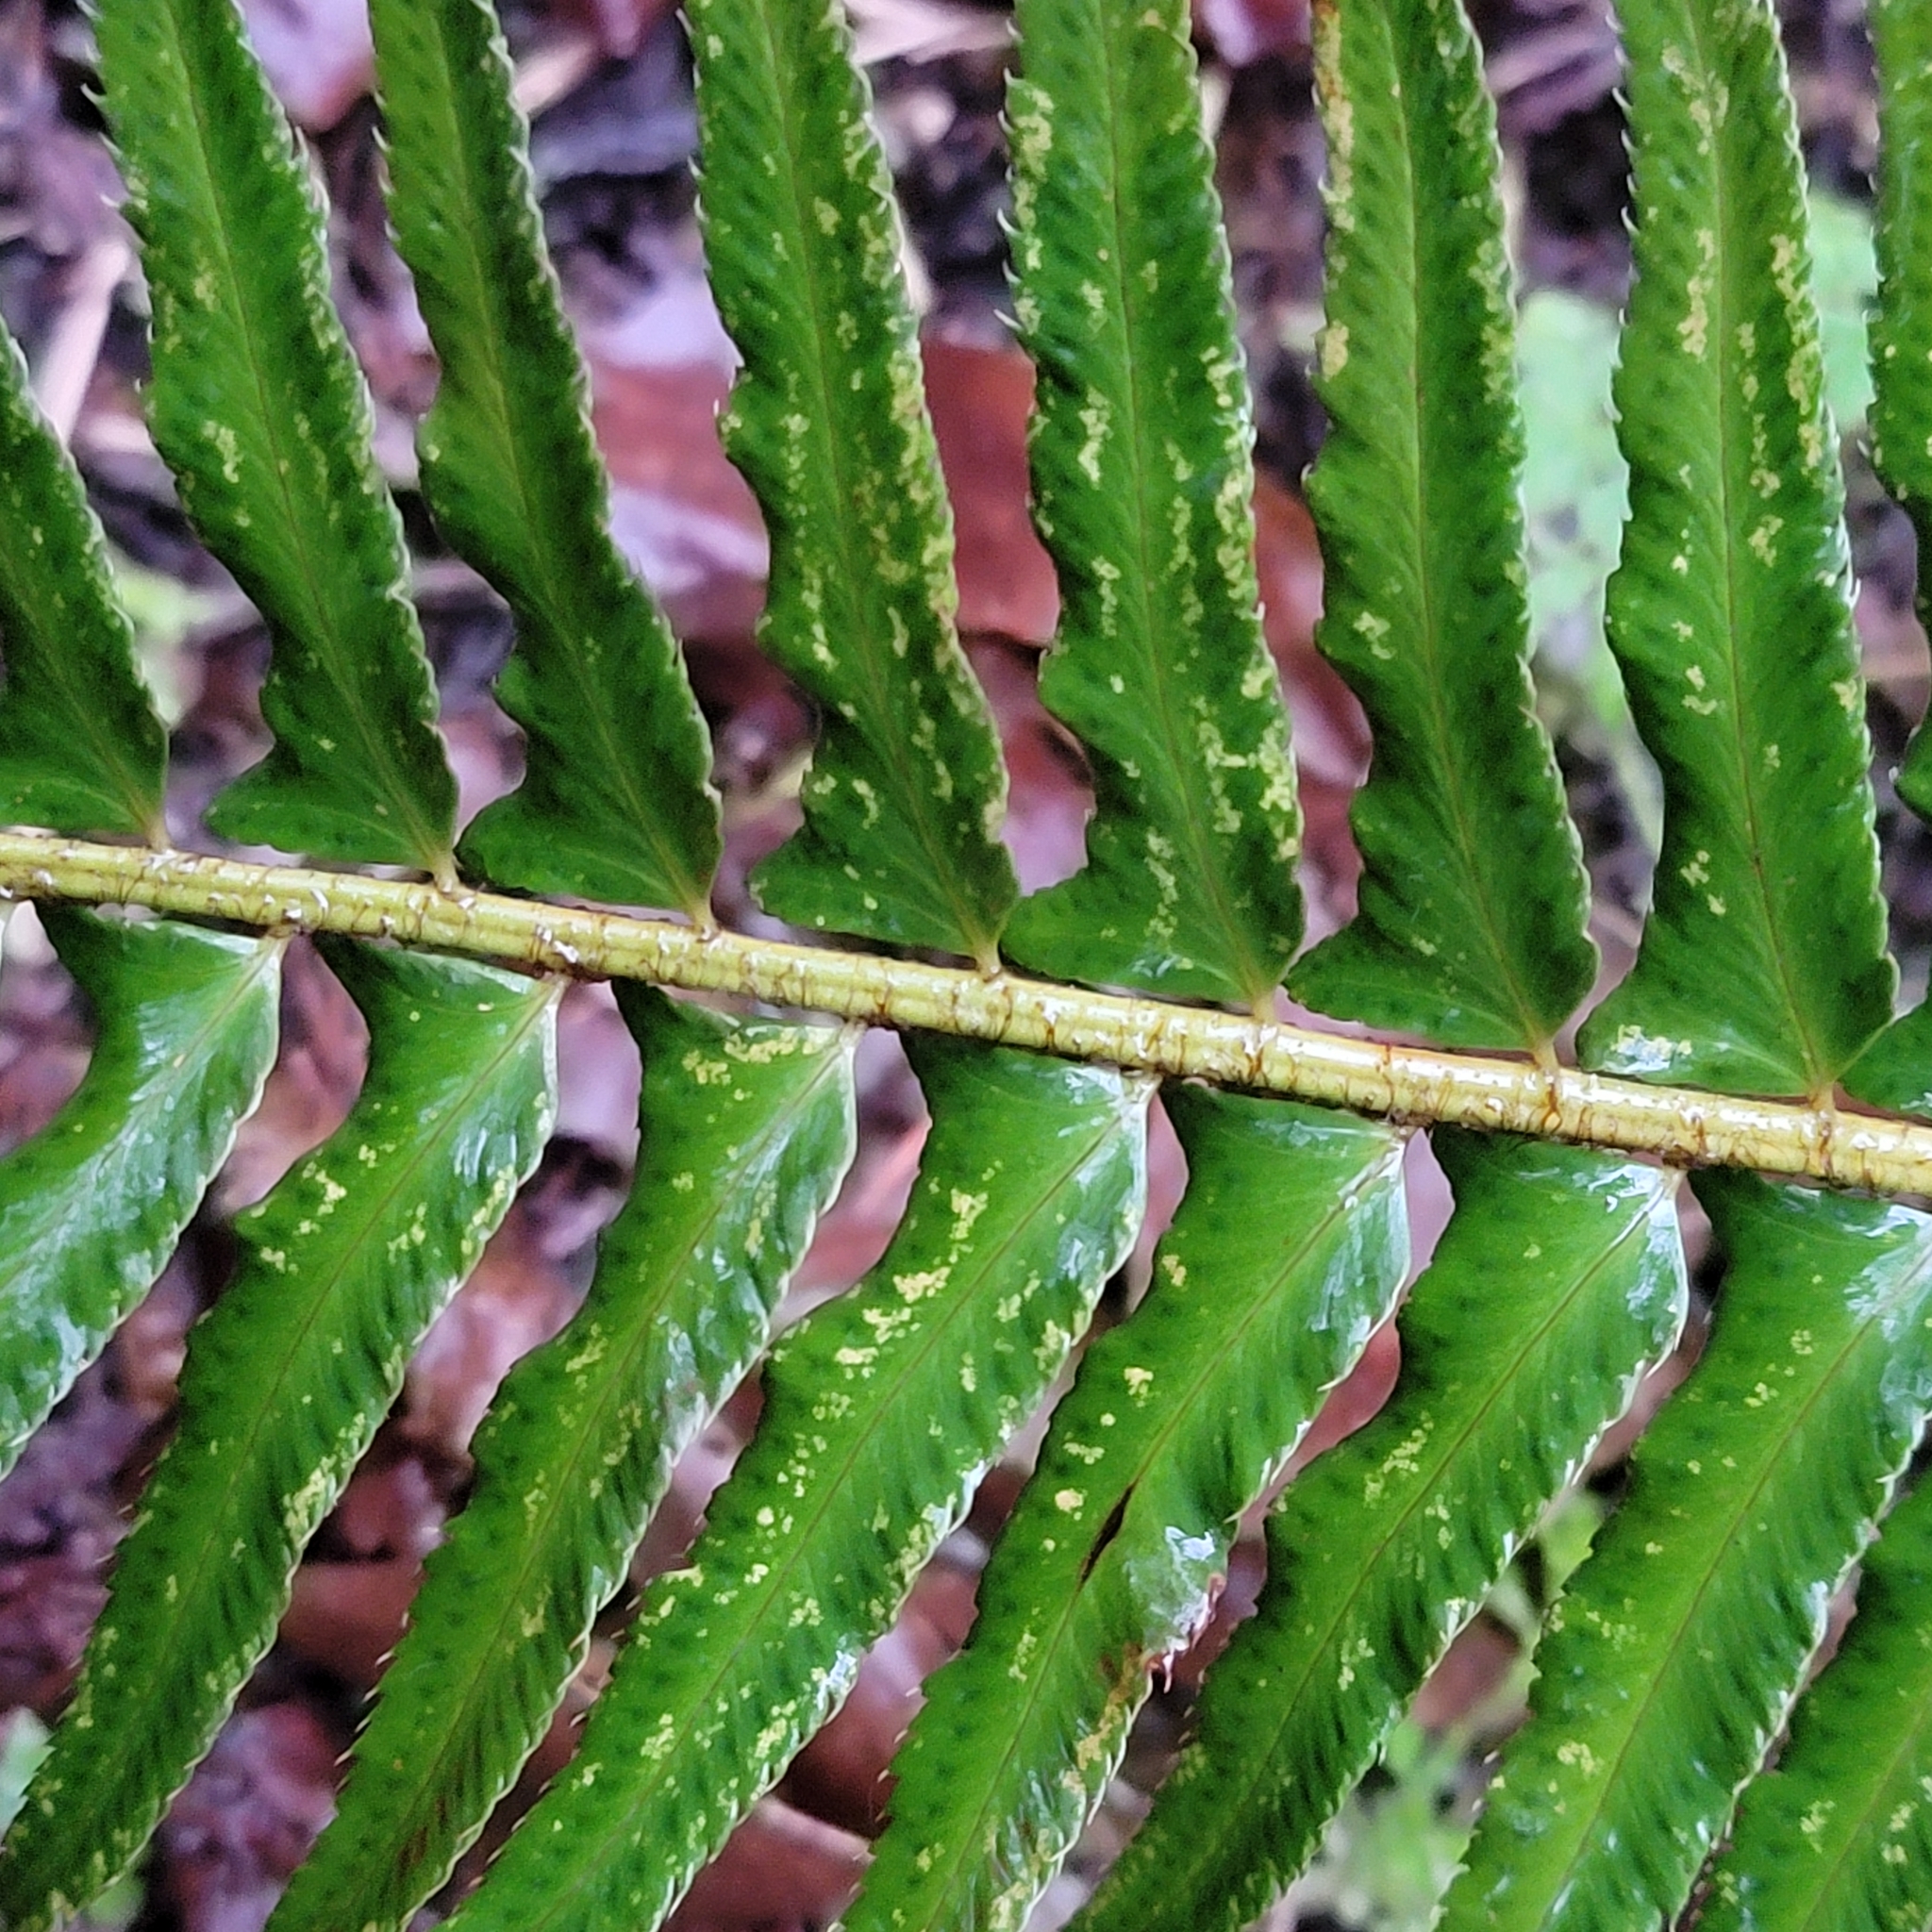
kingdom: Plantae
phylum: Tracheophyta
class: Polypodiopsida
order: Polypodiales
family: Dryopteridaceae
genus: Polystichum
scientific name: Polystichum munitum
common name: Western sword-fern
